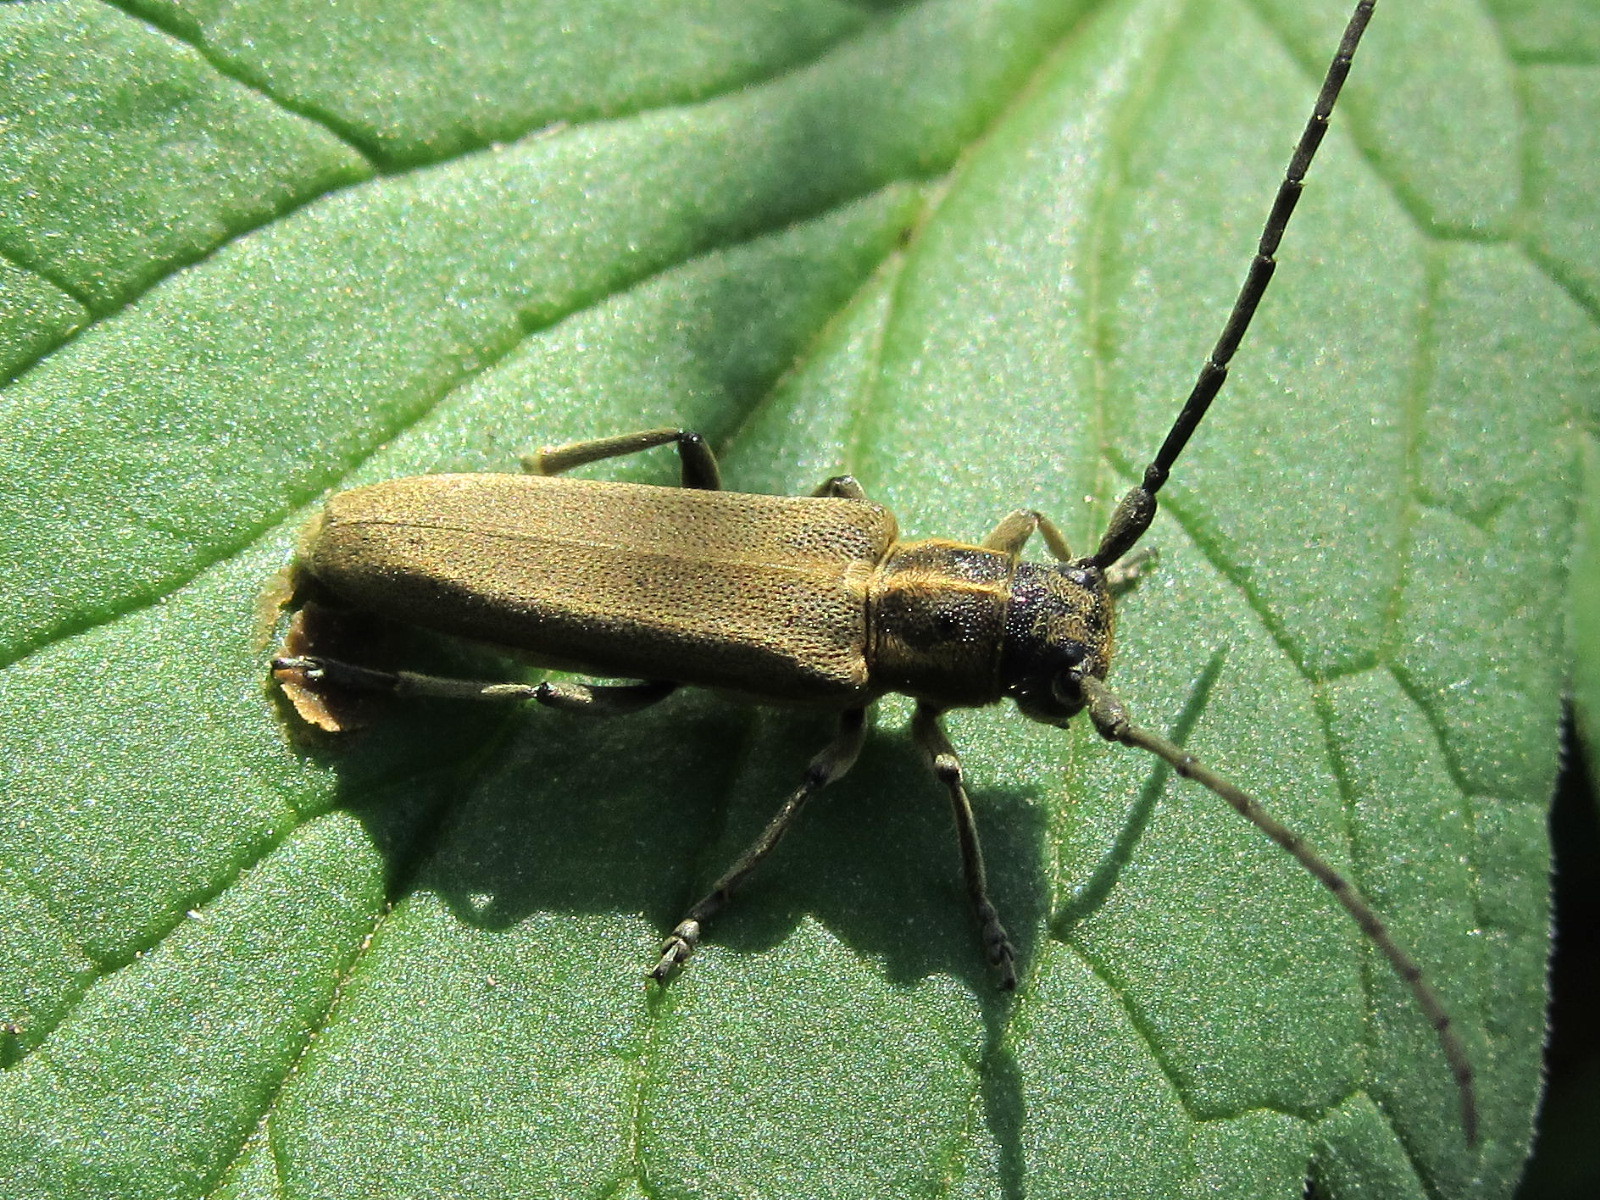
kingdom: Animalia
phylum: Arthropoda
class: Insecta
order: Coleoptera
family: Cerambycidae
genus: Phytoecia
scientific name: Phytoecia nigricornis
